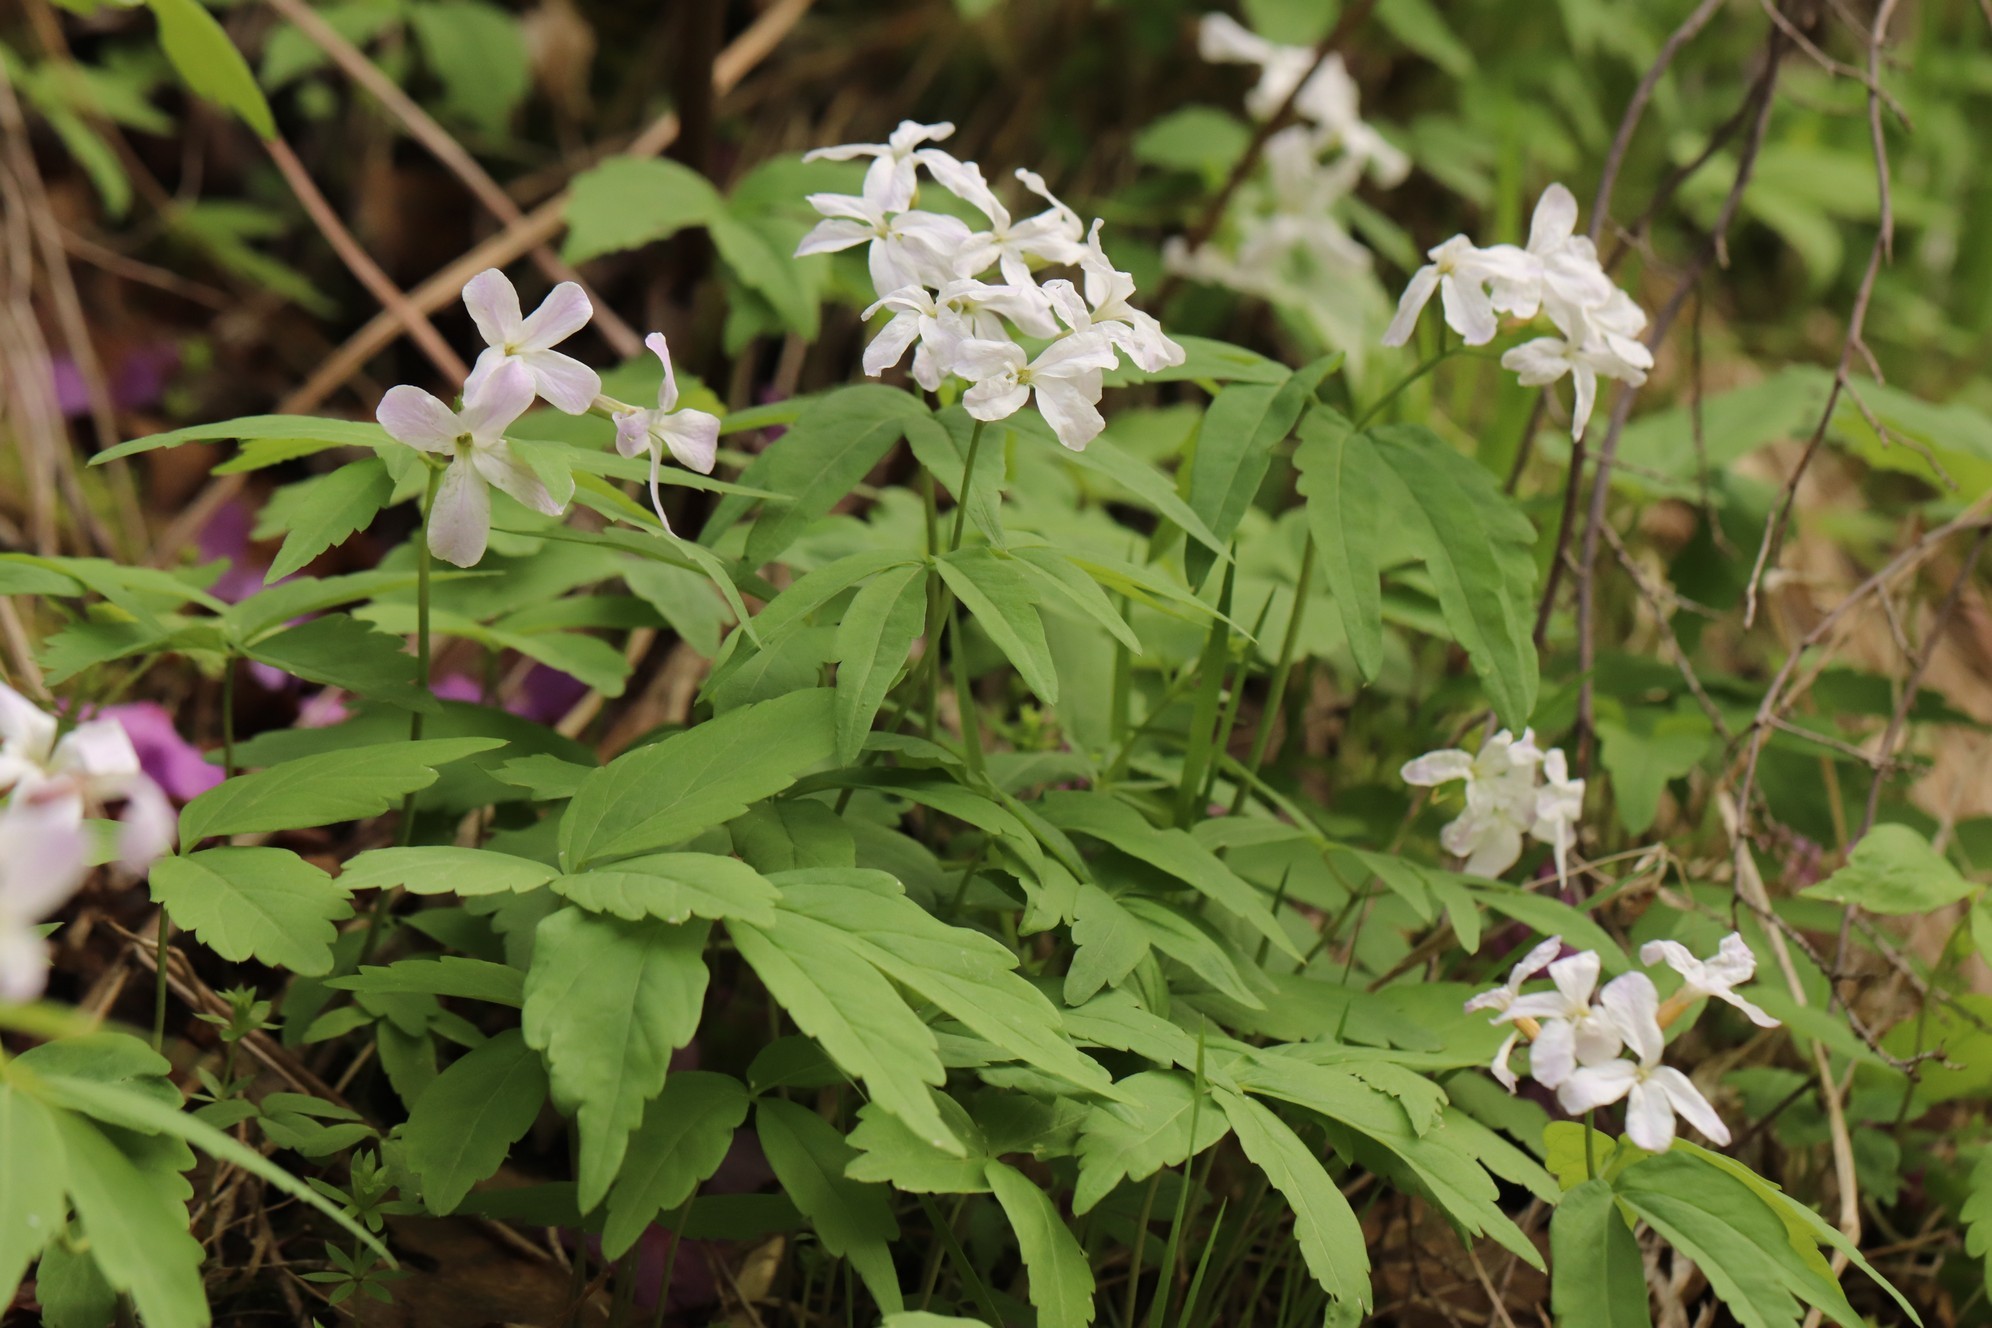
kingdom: Plantae
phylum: Tracheophyta
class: Magnoliopsida
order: Brassicales
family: Brassicaceae
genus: Cardamine
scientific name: Cardamine altaica
